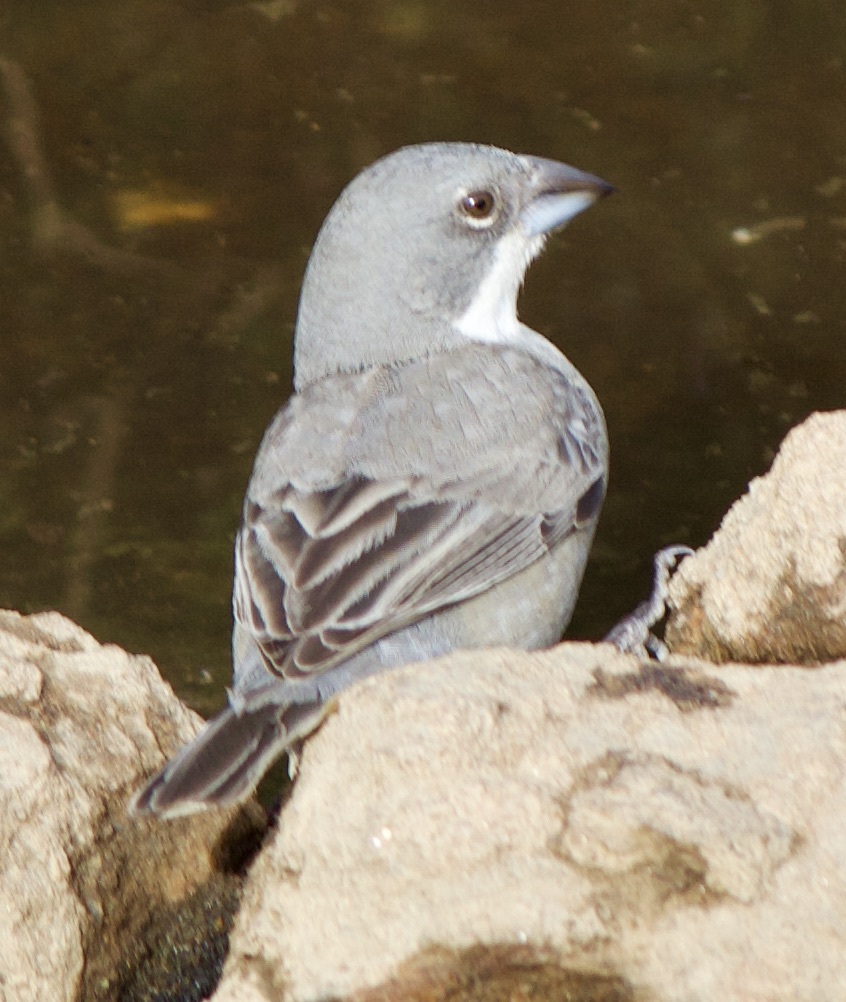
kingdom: Animalia
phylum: Chordata
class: Aves
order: Passeriformes
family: Thraupidae
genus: Diuca
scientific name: Diuca diuca
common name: Common diuca finch
